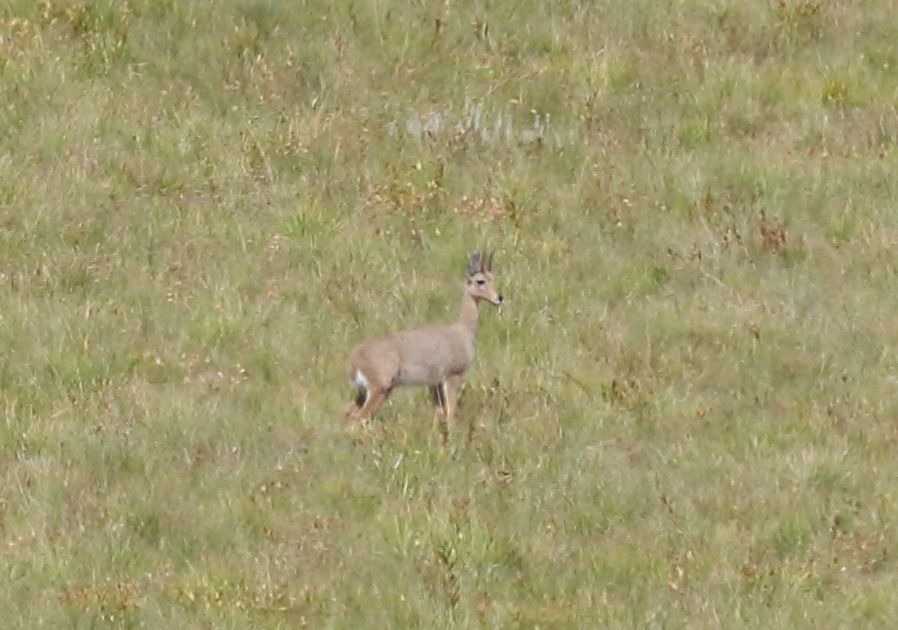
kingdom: Animalia
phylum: Chordata
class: Mammalia
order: Artiodactyla
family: Bovidae
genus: Pelea
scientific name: Pelea capreolus
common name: Common rhebok
